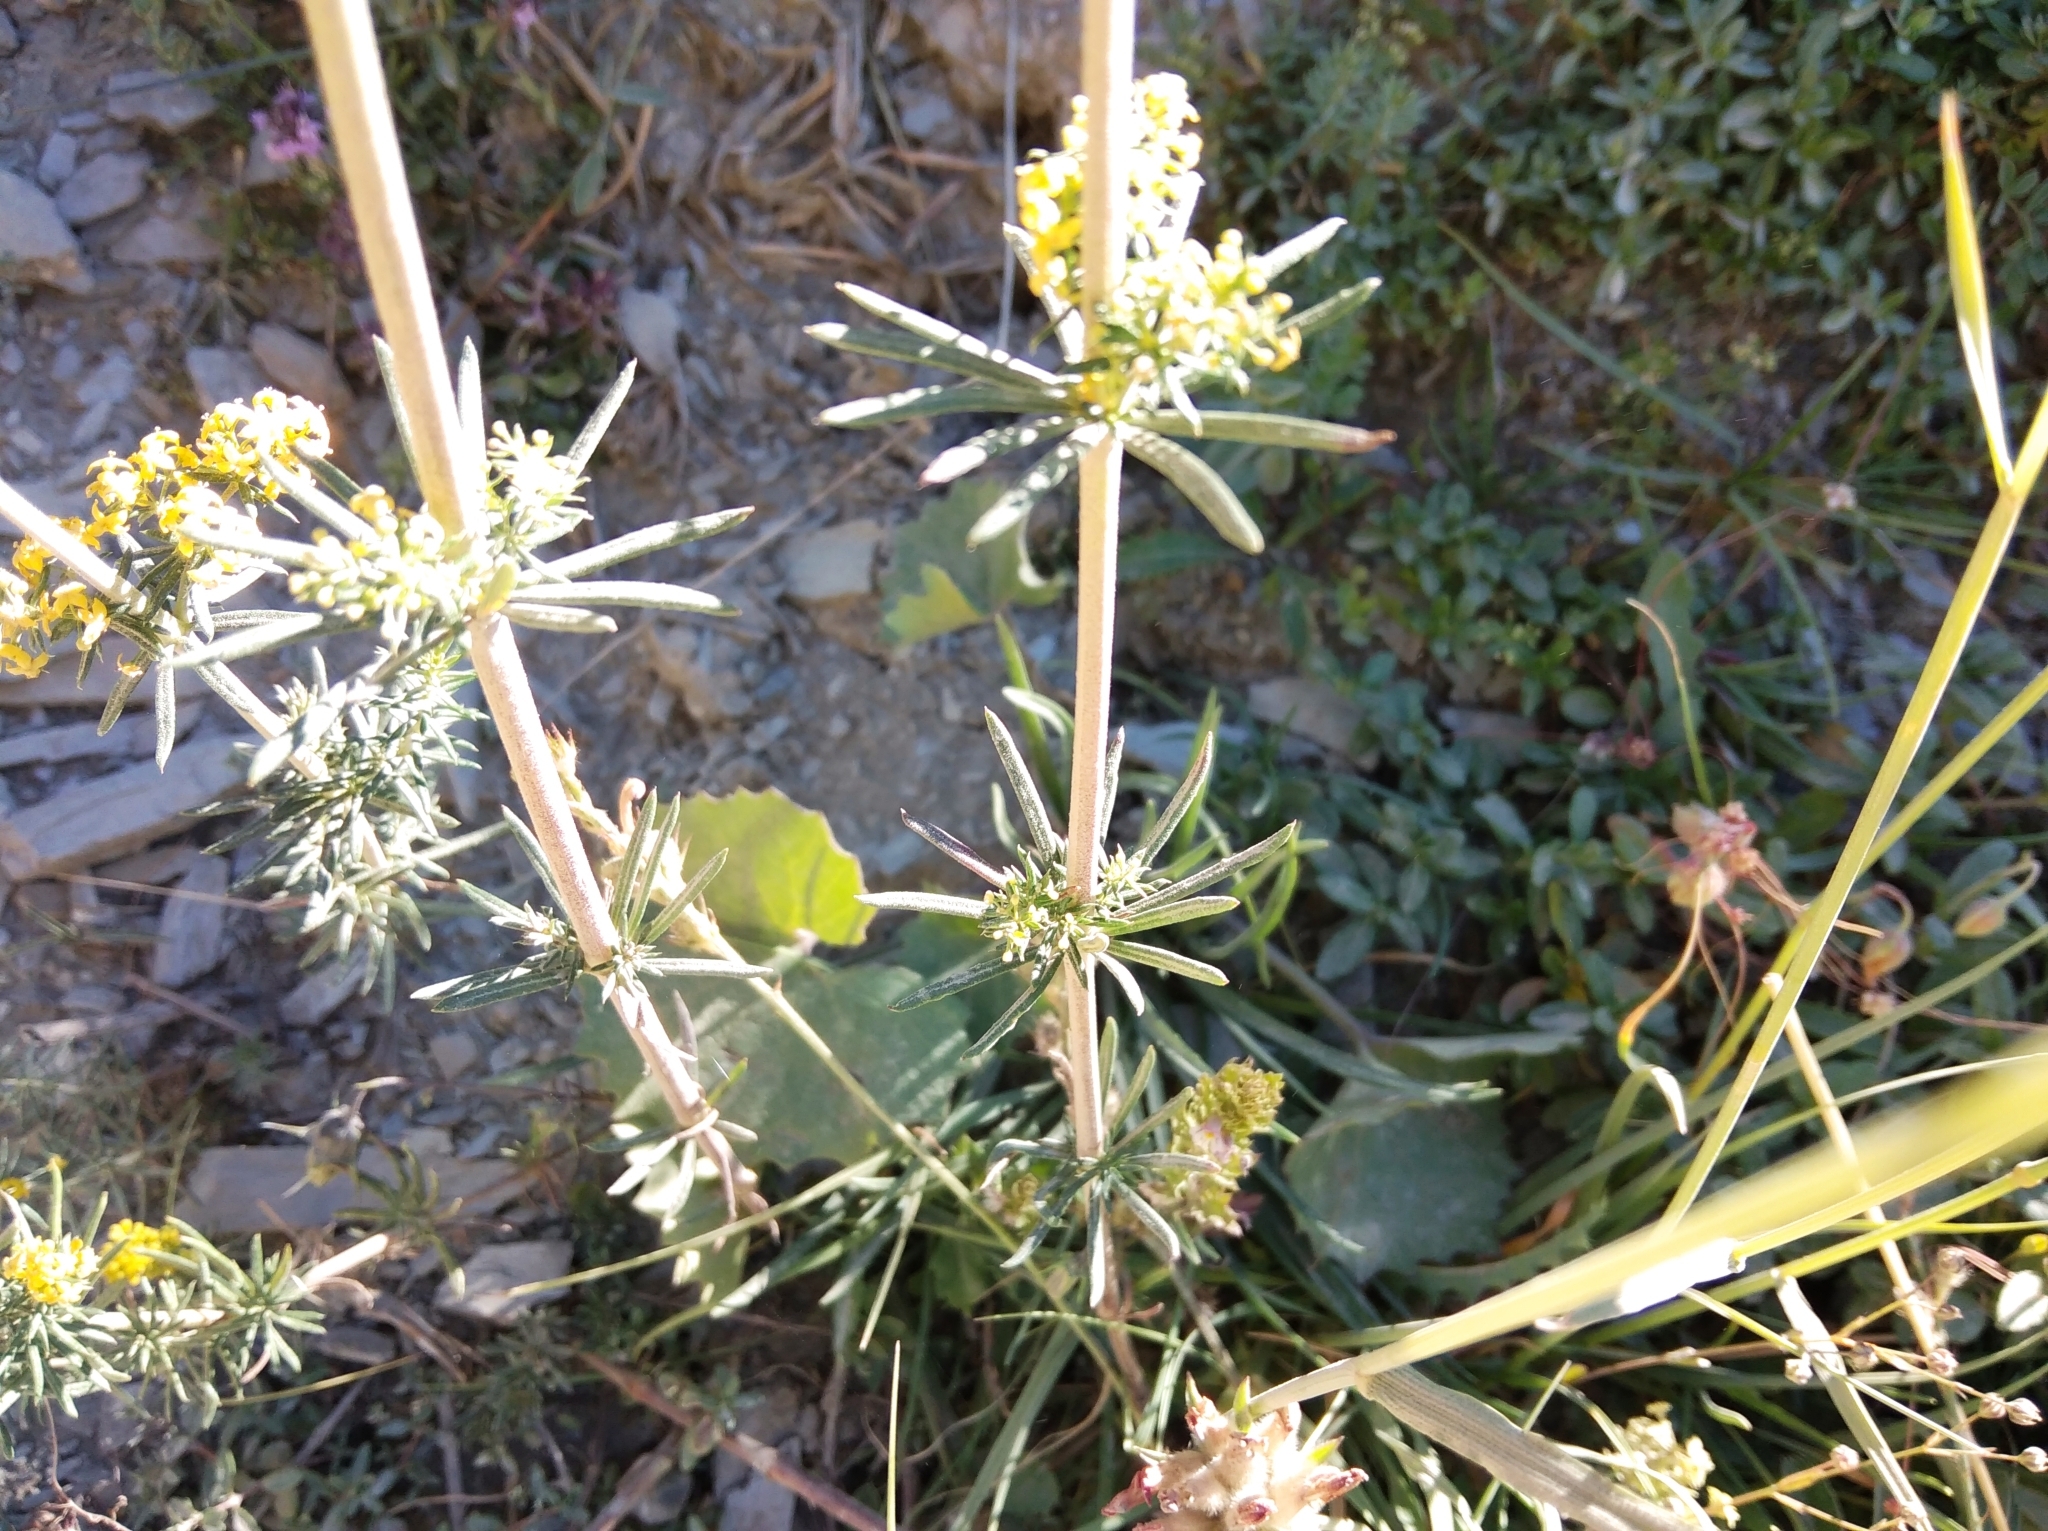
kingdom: Plantae
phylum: Tracheophyta
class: Magnoliopsida
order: Gentianales
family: Rubiaceae
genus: Galium
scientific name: Galium verum
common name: Lady's bedstraw
